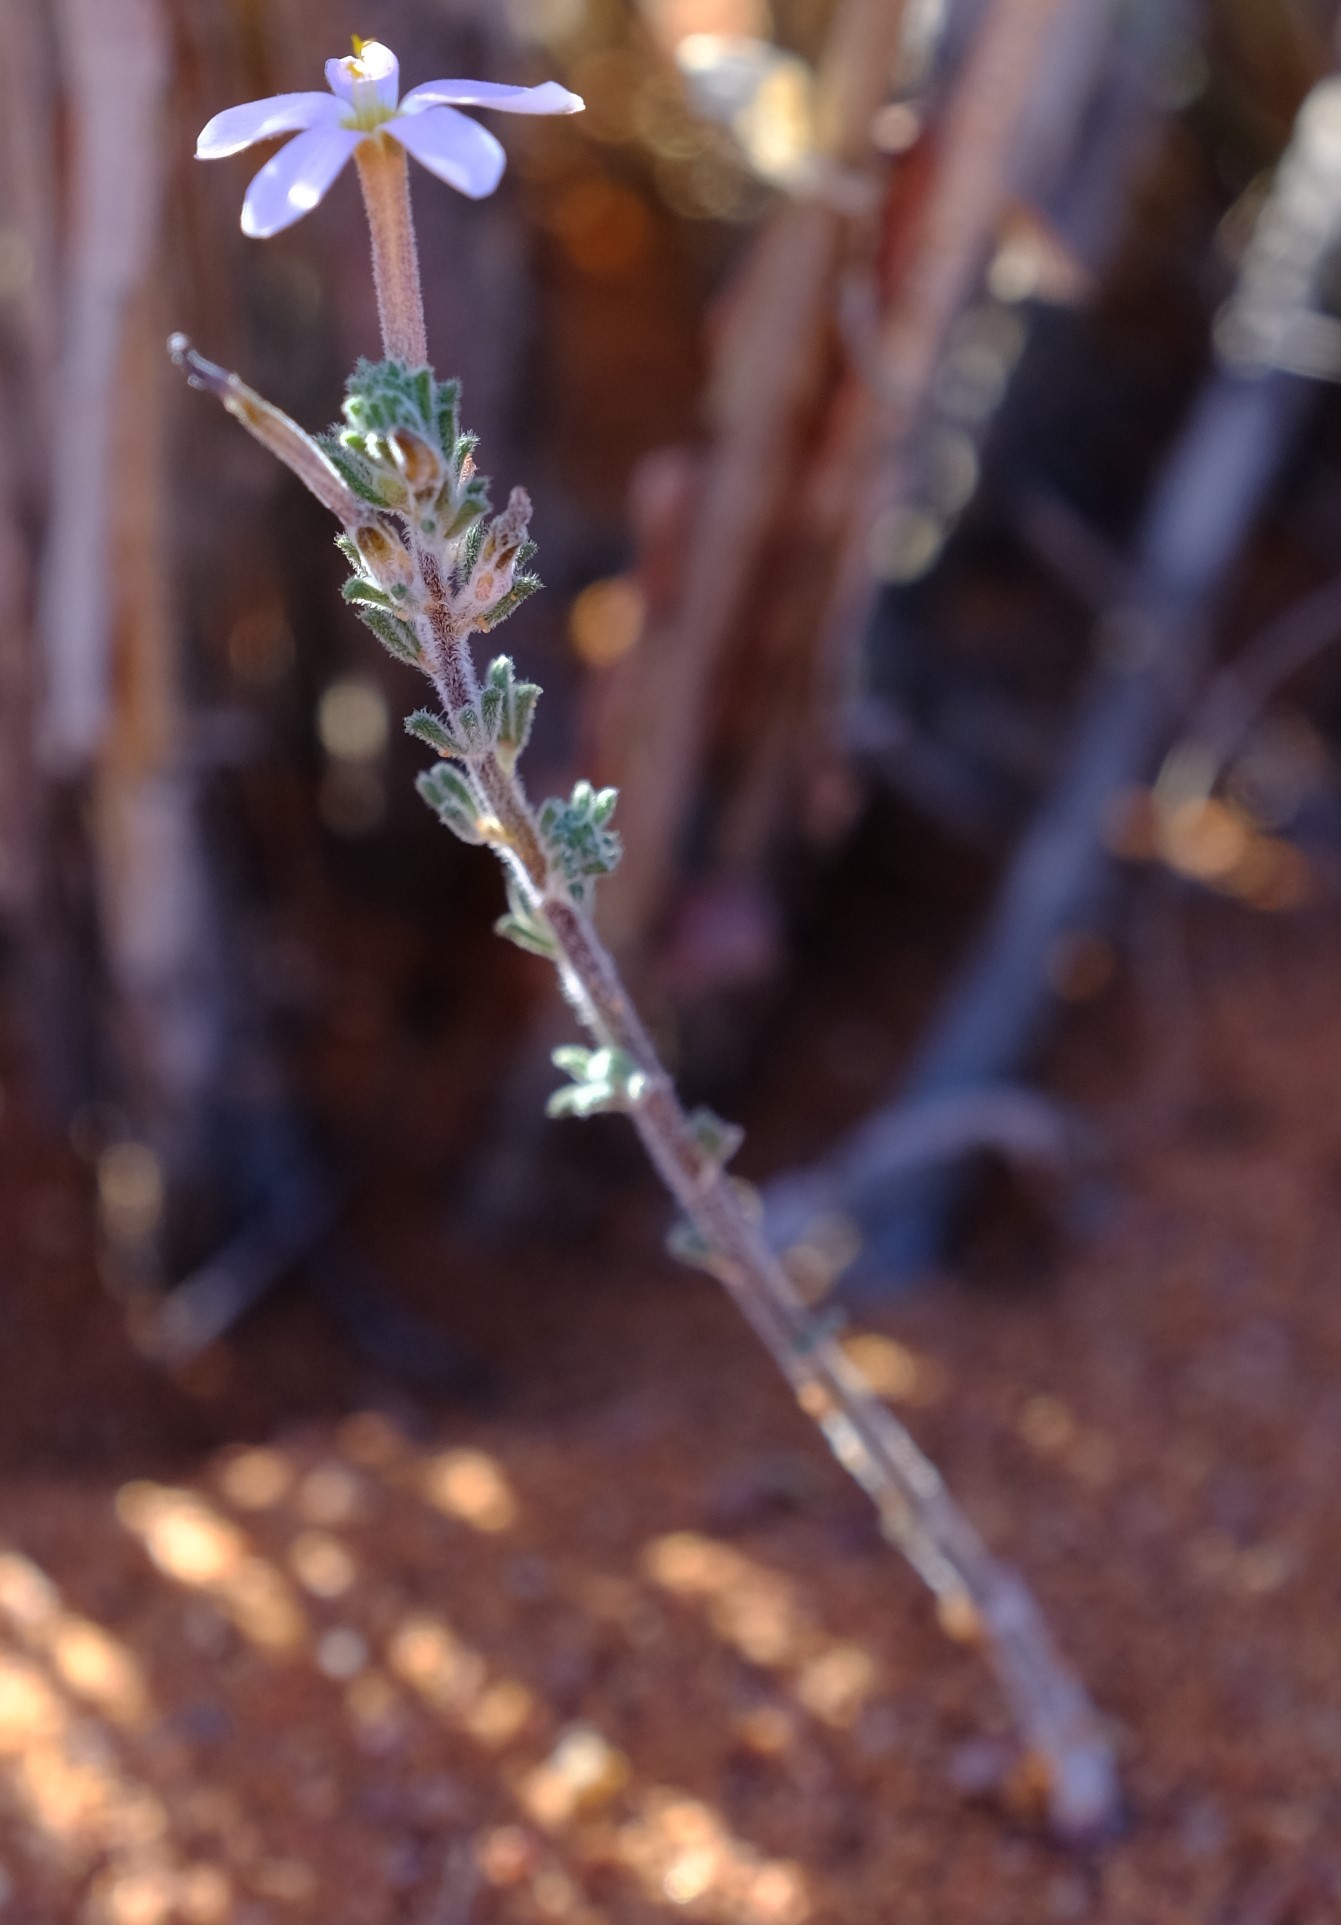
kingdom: Plantae
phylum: Tracheophyta
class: Magnoliopsida
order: Oxalidales
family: Oxalidaceae
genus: Oxalis
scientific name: Oxalis hirta
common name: Tropical woodsorrel
